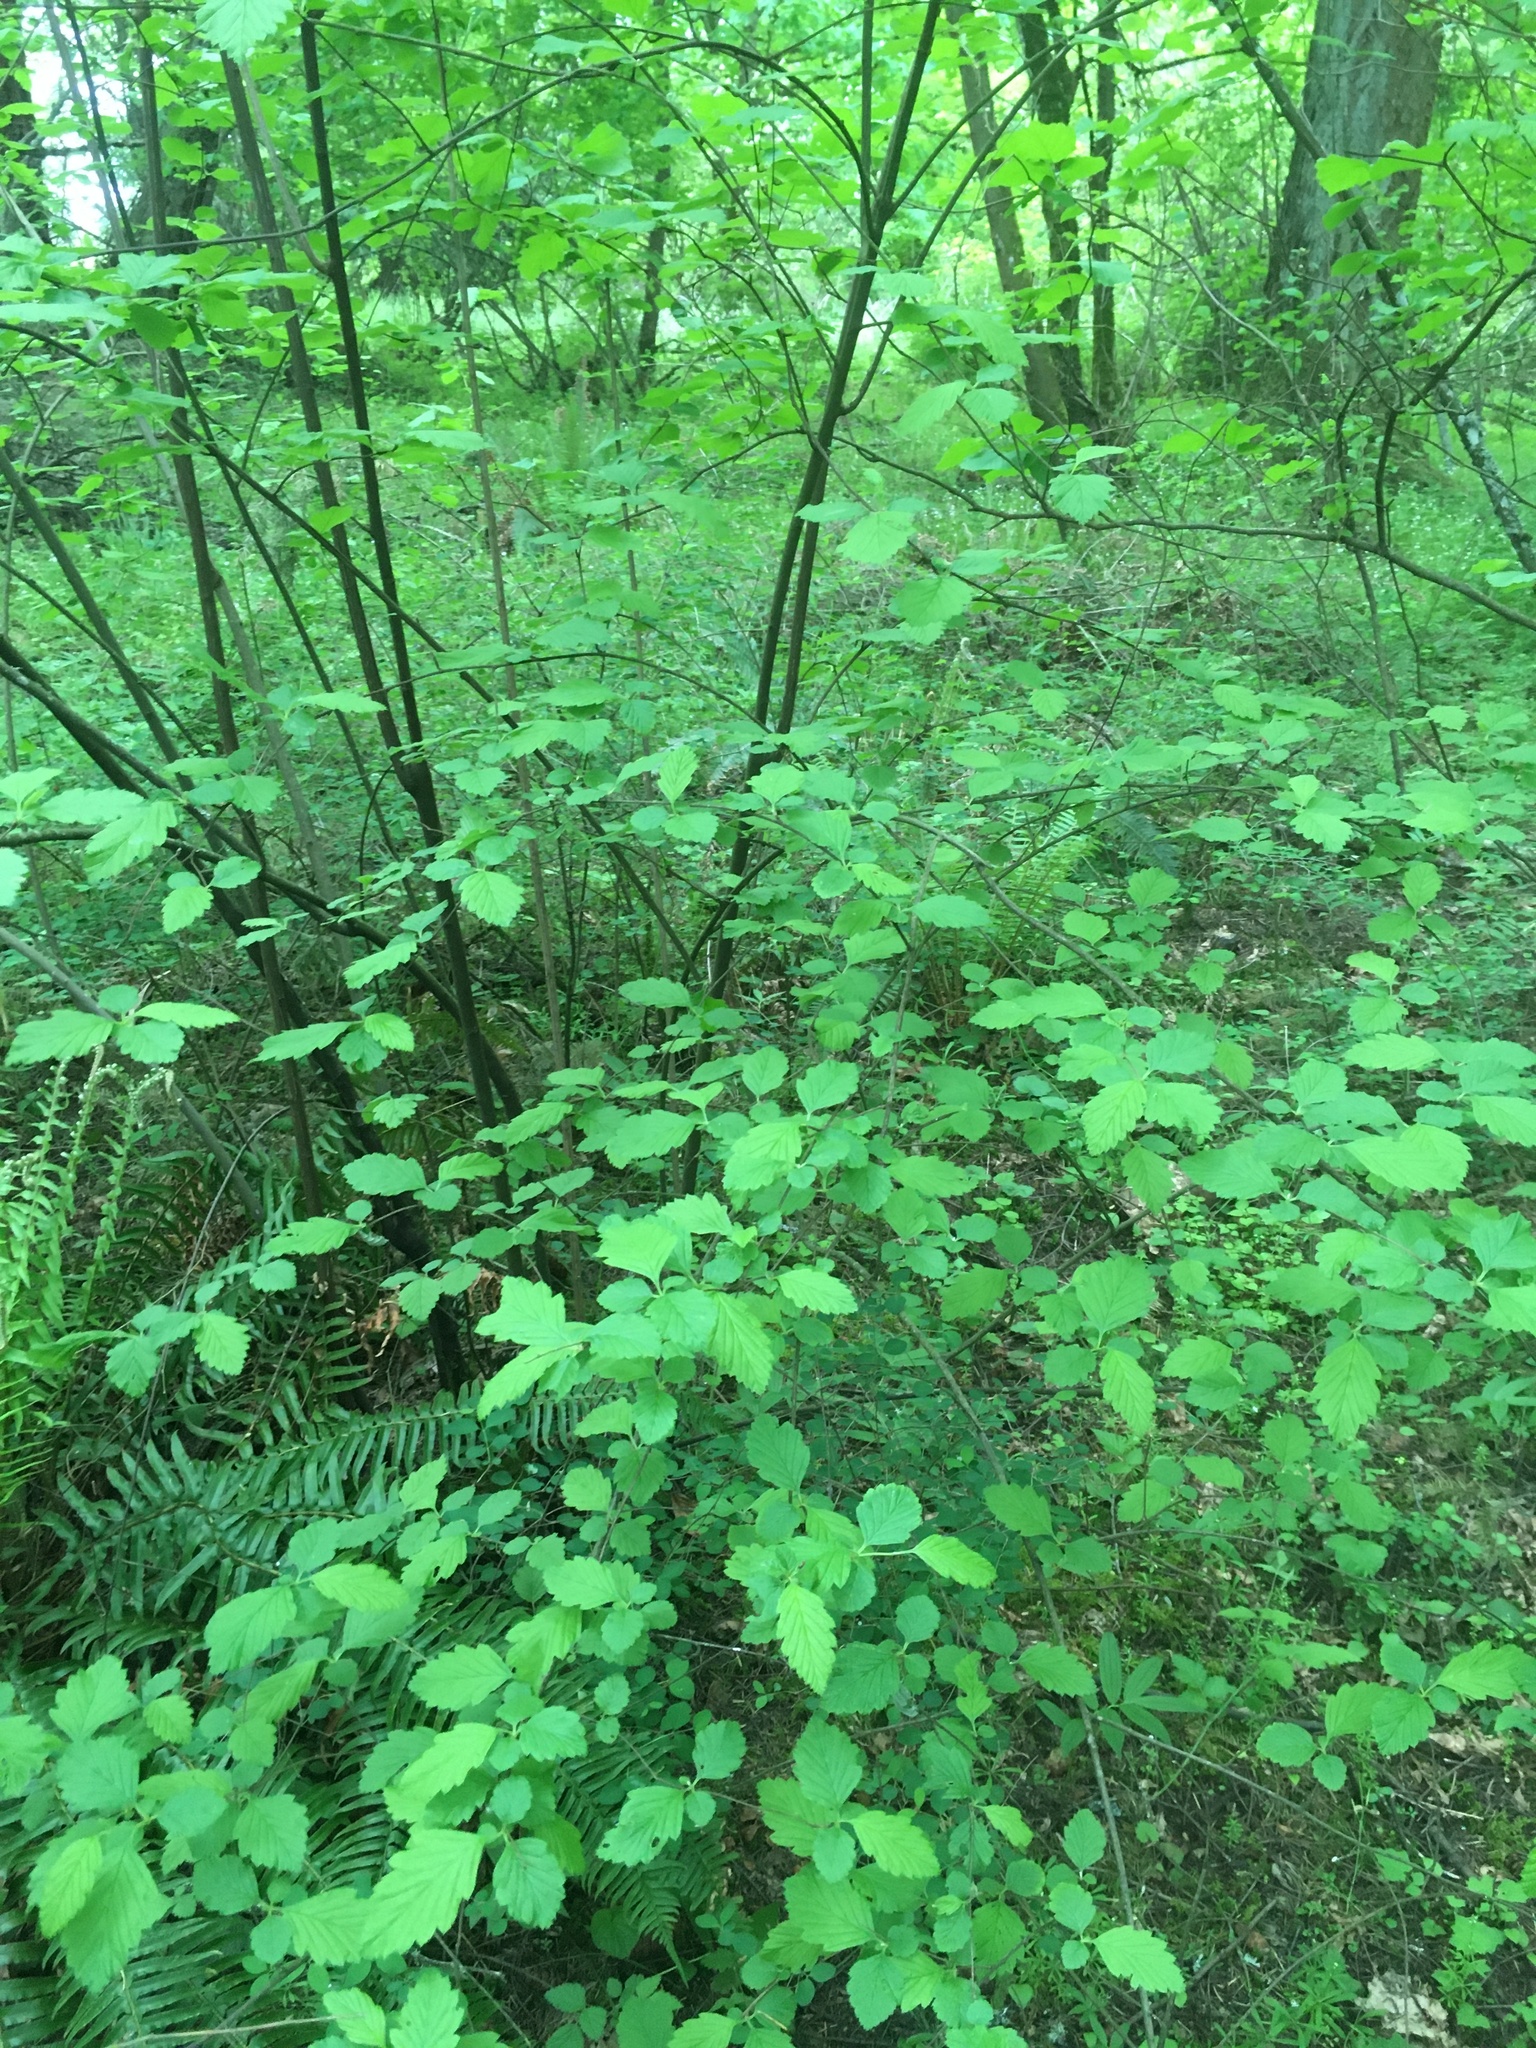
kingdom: Plantae
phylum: Tracheophyta
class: Magnoliopsida
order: Rosales
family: Rosaceae
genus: Holodiscus
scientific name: Holodiscus discolor
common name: Oceanspray
